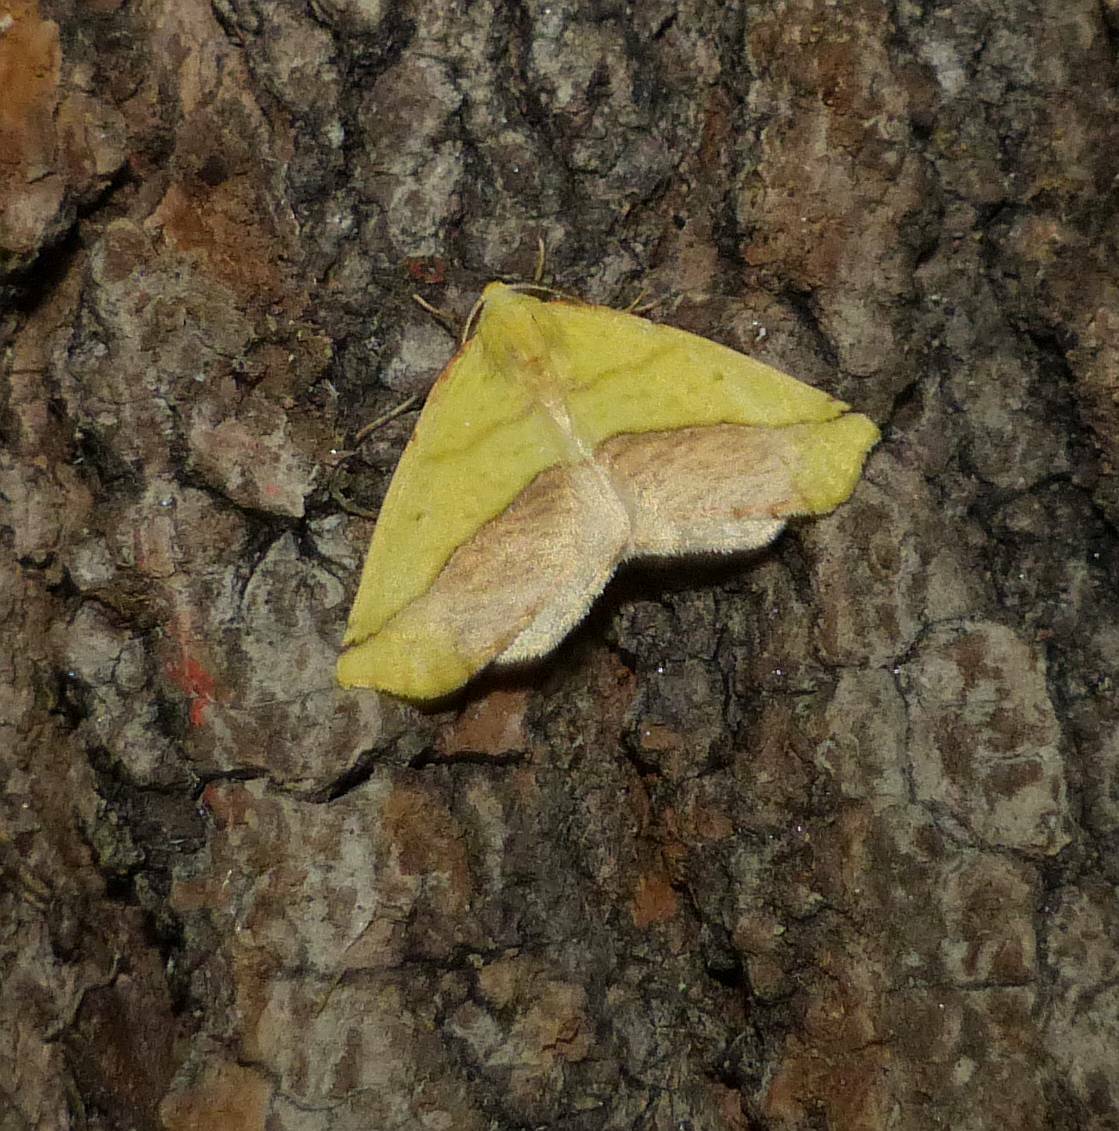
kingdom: Animalia
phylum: Arthropoda
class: Insecta
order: Lepidoptera
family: Geometridae
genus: Sicya
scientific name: Sicya macularia
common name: Sharp-lined yellow
